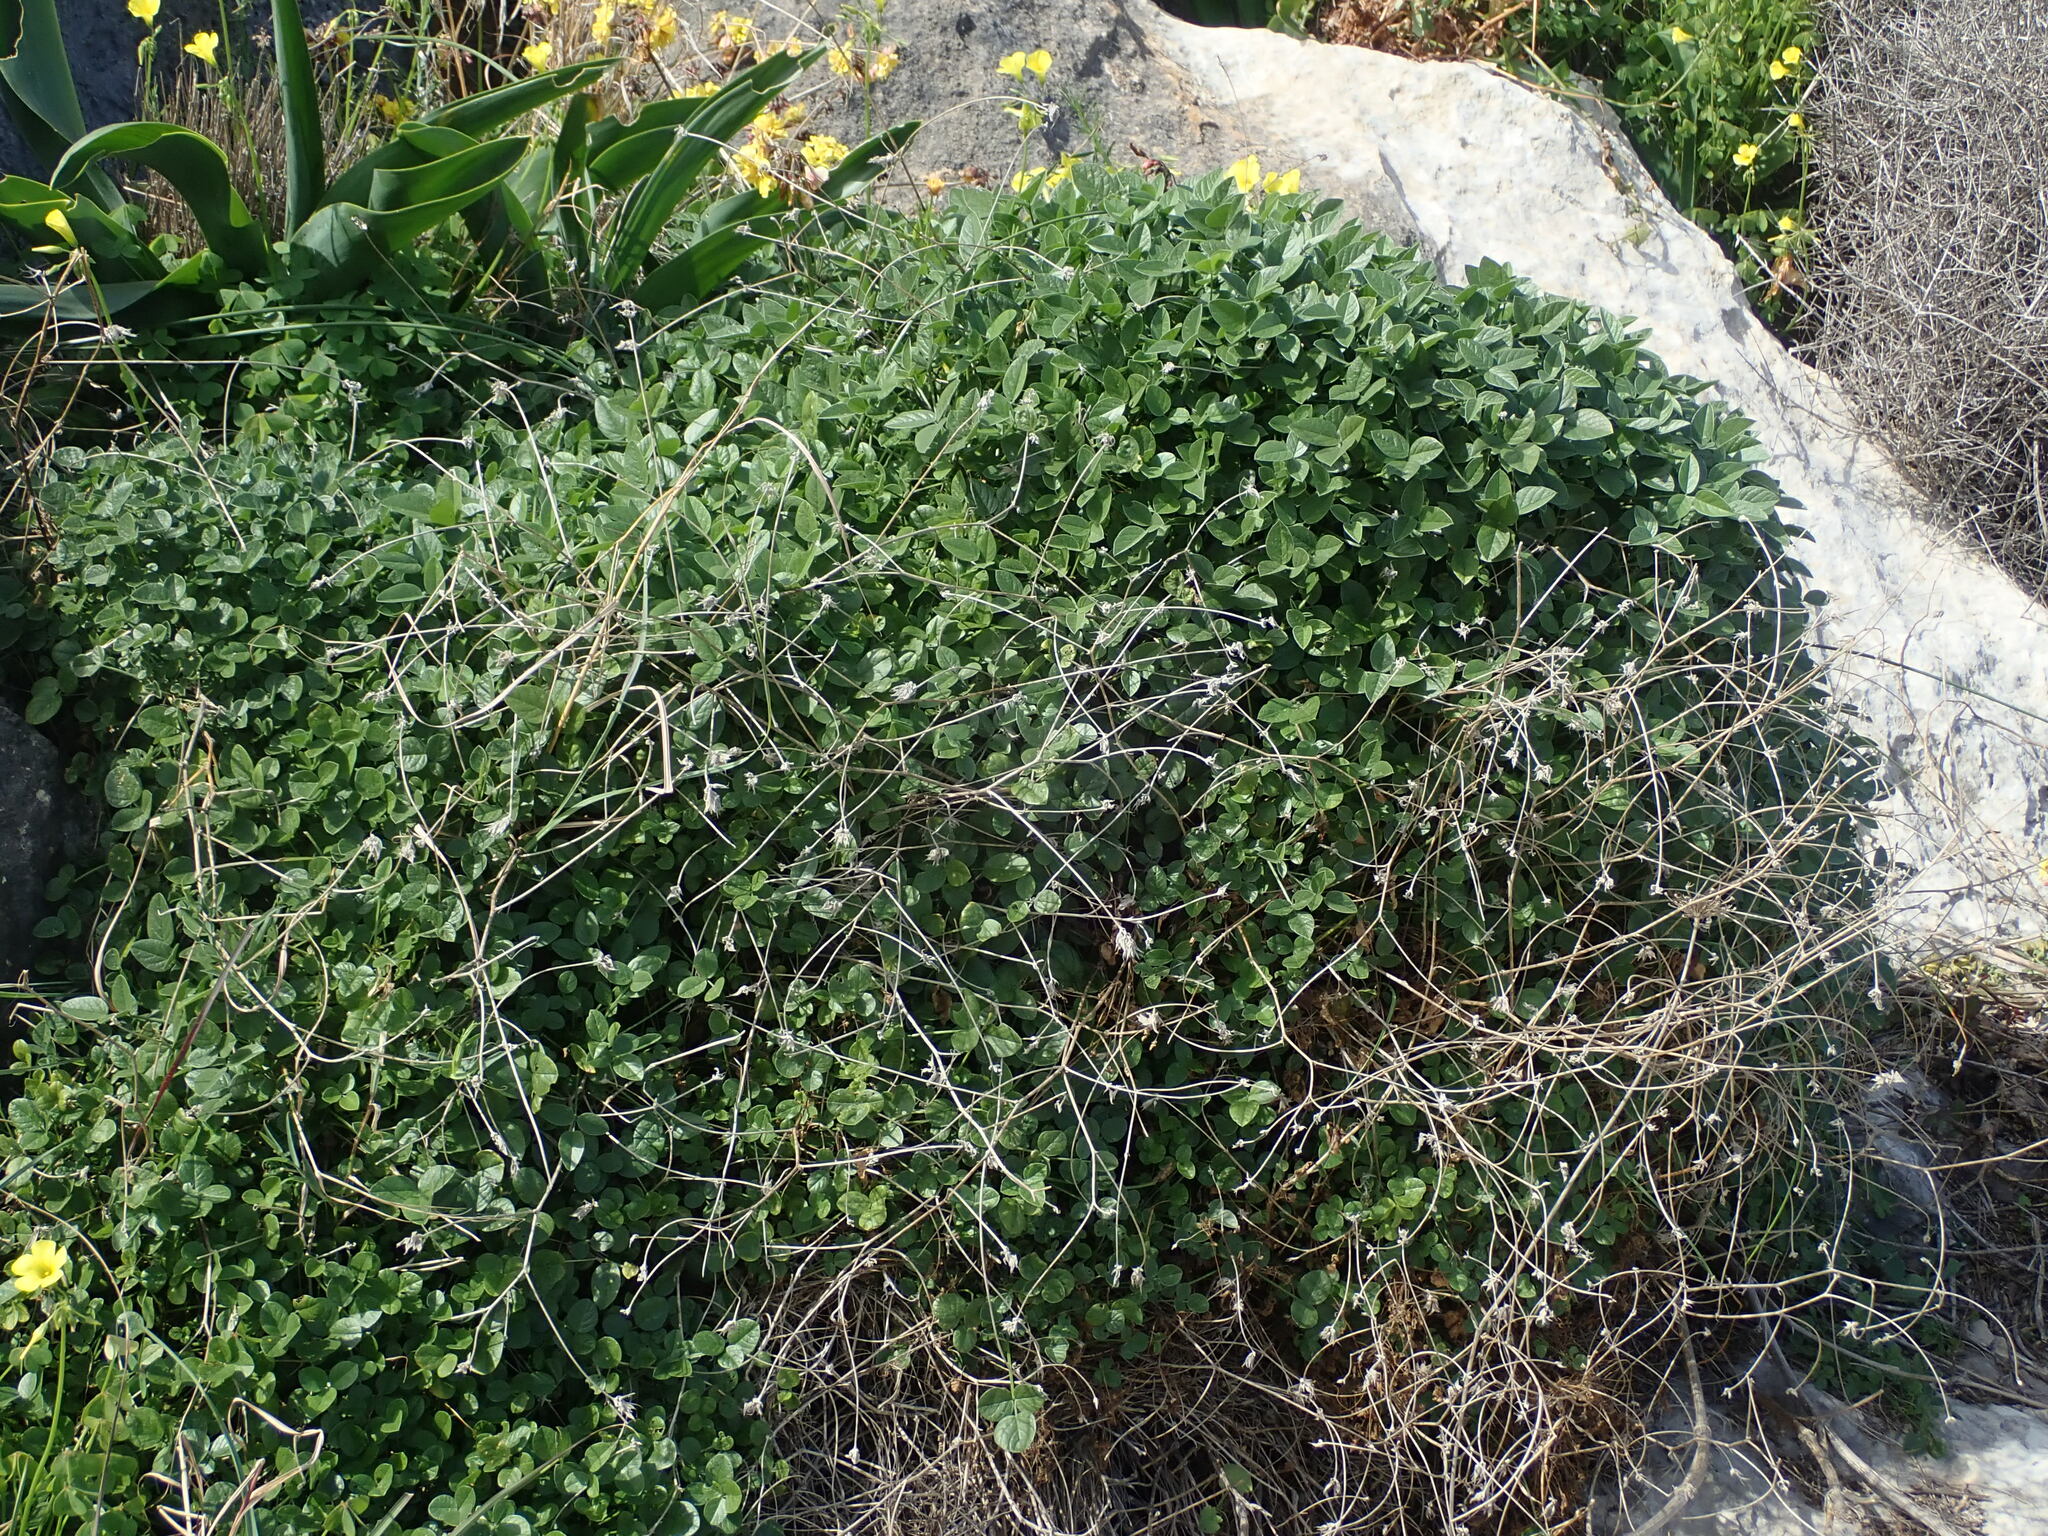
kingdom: Plantae
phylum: Tracheophyta
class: Magnoliopsida
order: Fabales
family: Fabaceae
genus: Bituminaria
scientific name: Bituminaria bituminosa
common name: Arabian pea
